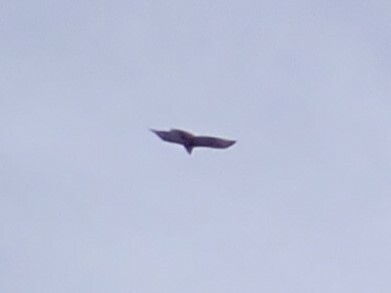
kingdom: Animalia
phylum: Chordata
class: Aves
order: Accipitriformes
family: Cathartidae
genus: Cathartes
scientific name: Cathartes aura
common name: Turkey vulture
